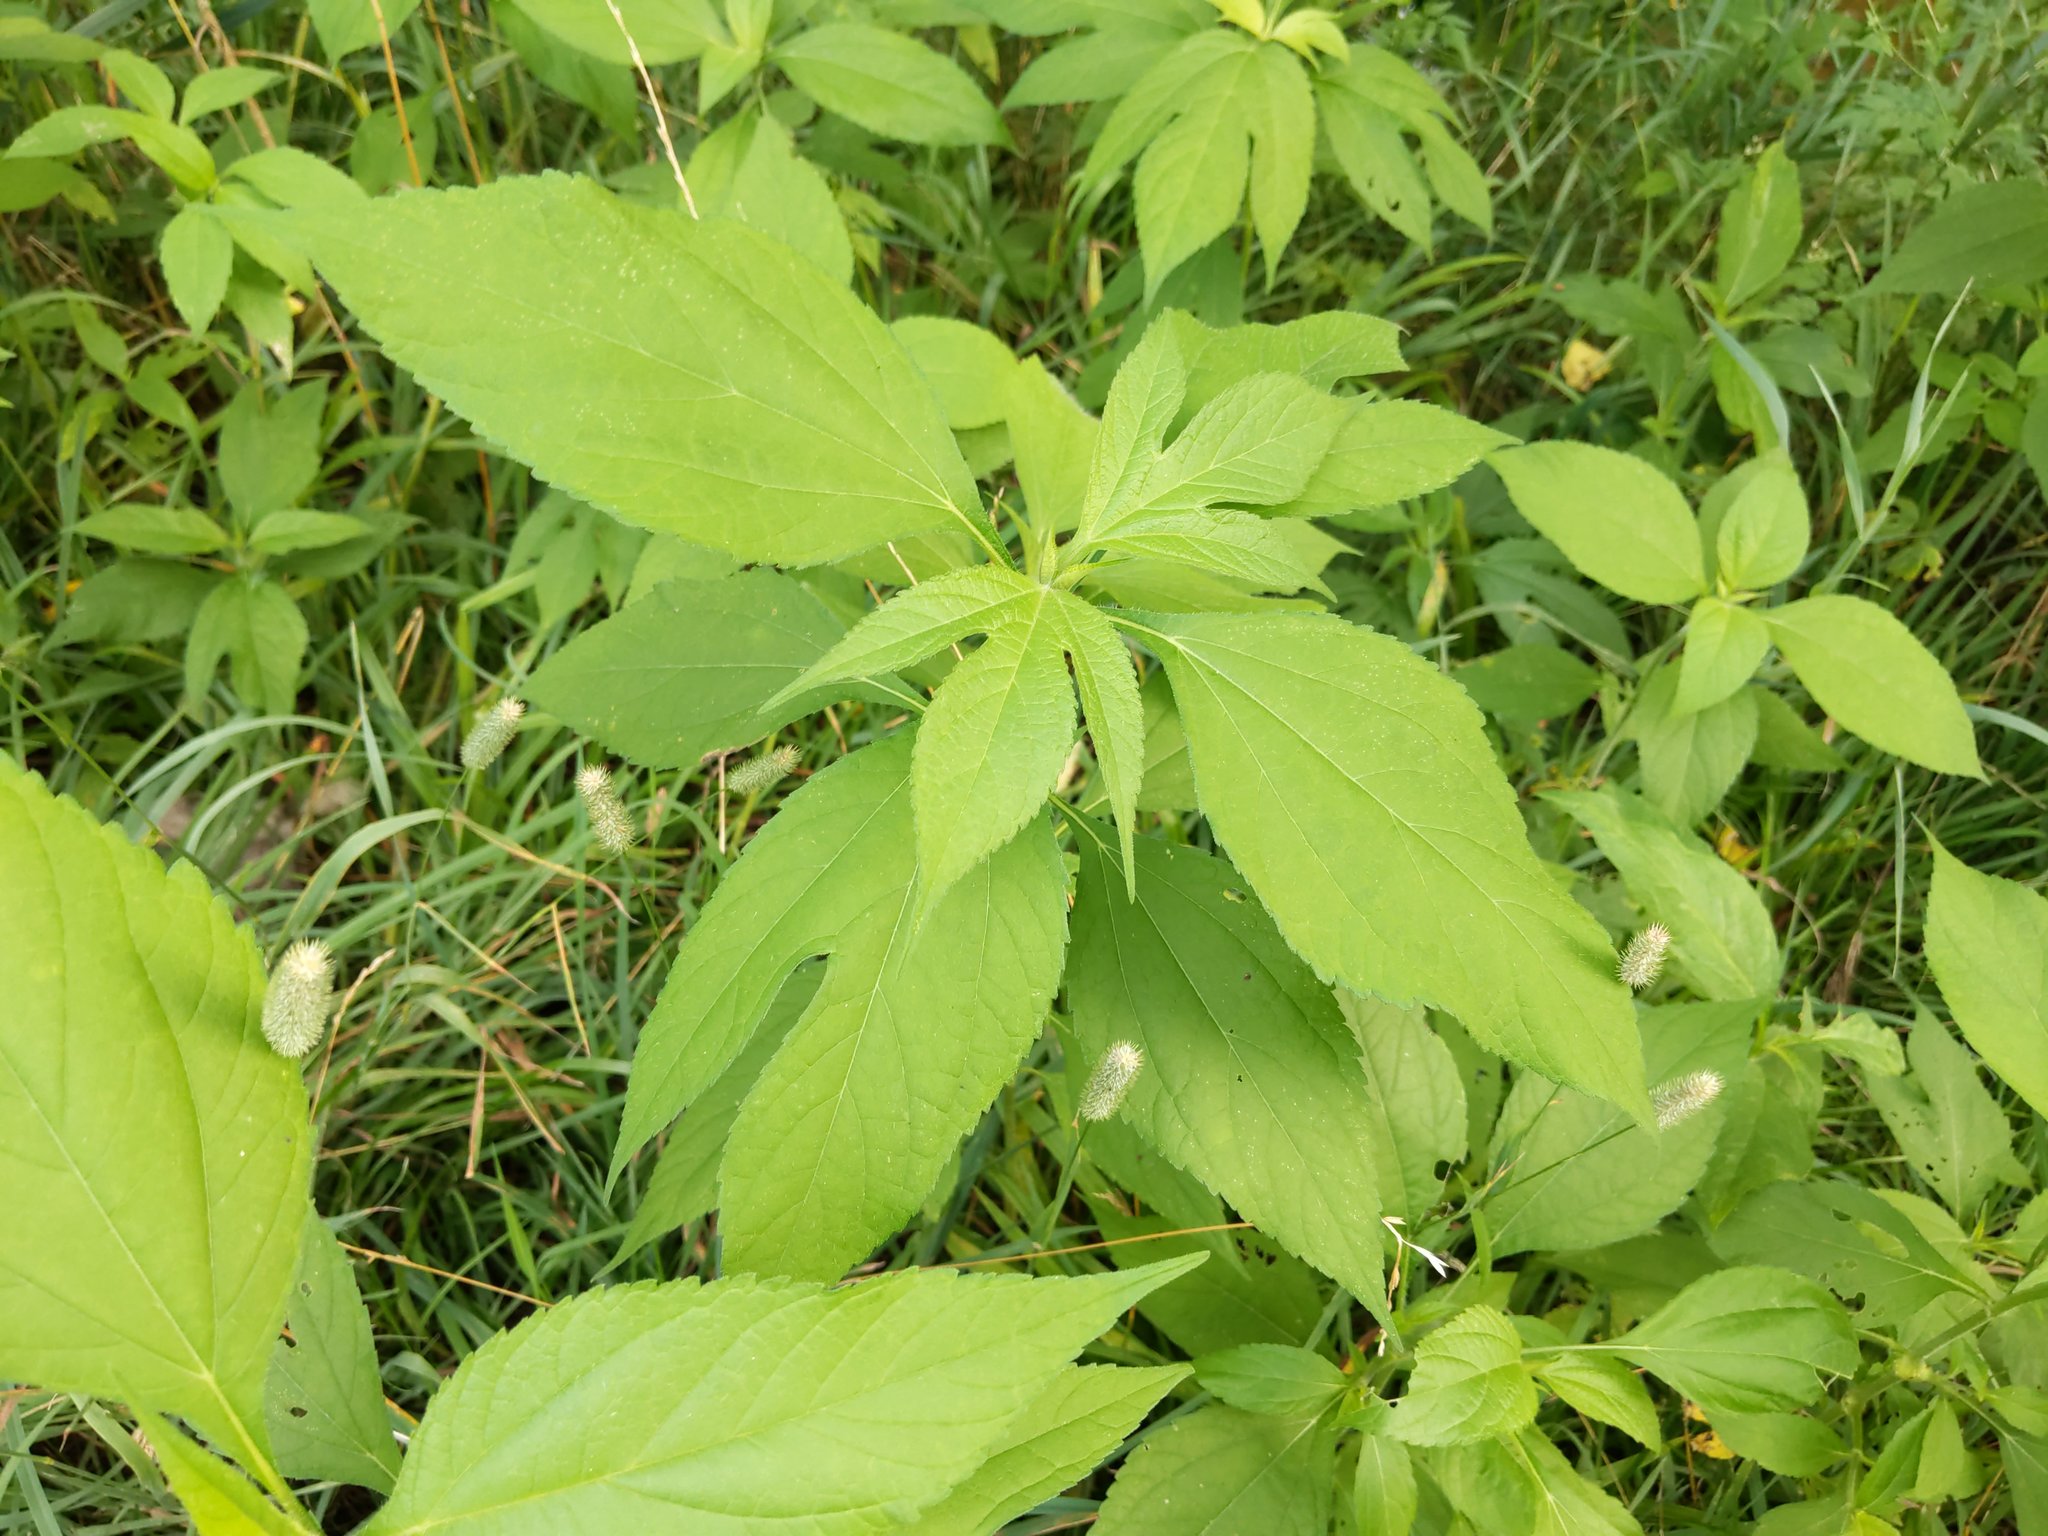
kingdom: Plantae
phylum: Tracheophyta
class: Magnoliopsida
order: Asterales
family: Asteraceae
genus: Ambrosia
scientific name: Ambrosia trifida
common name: Giant ragweed
